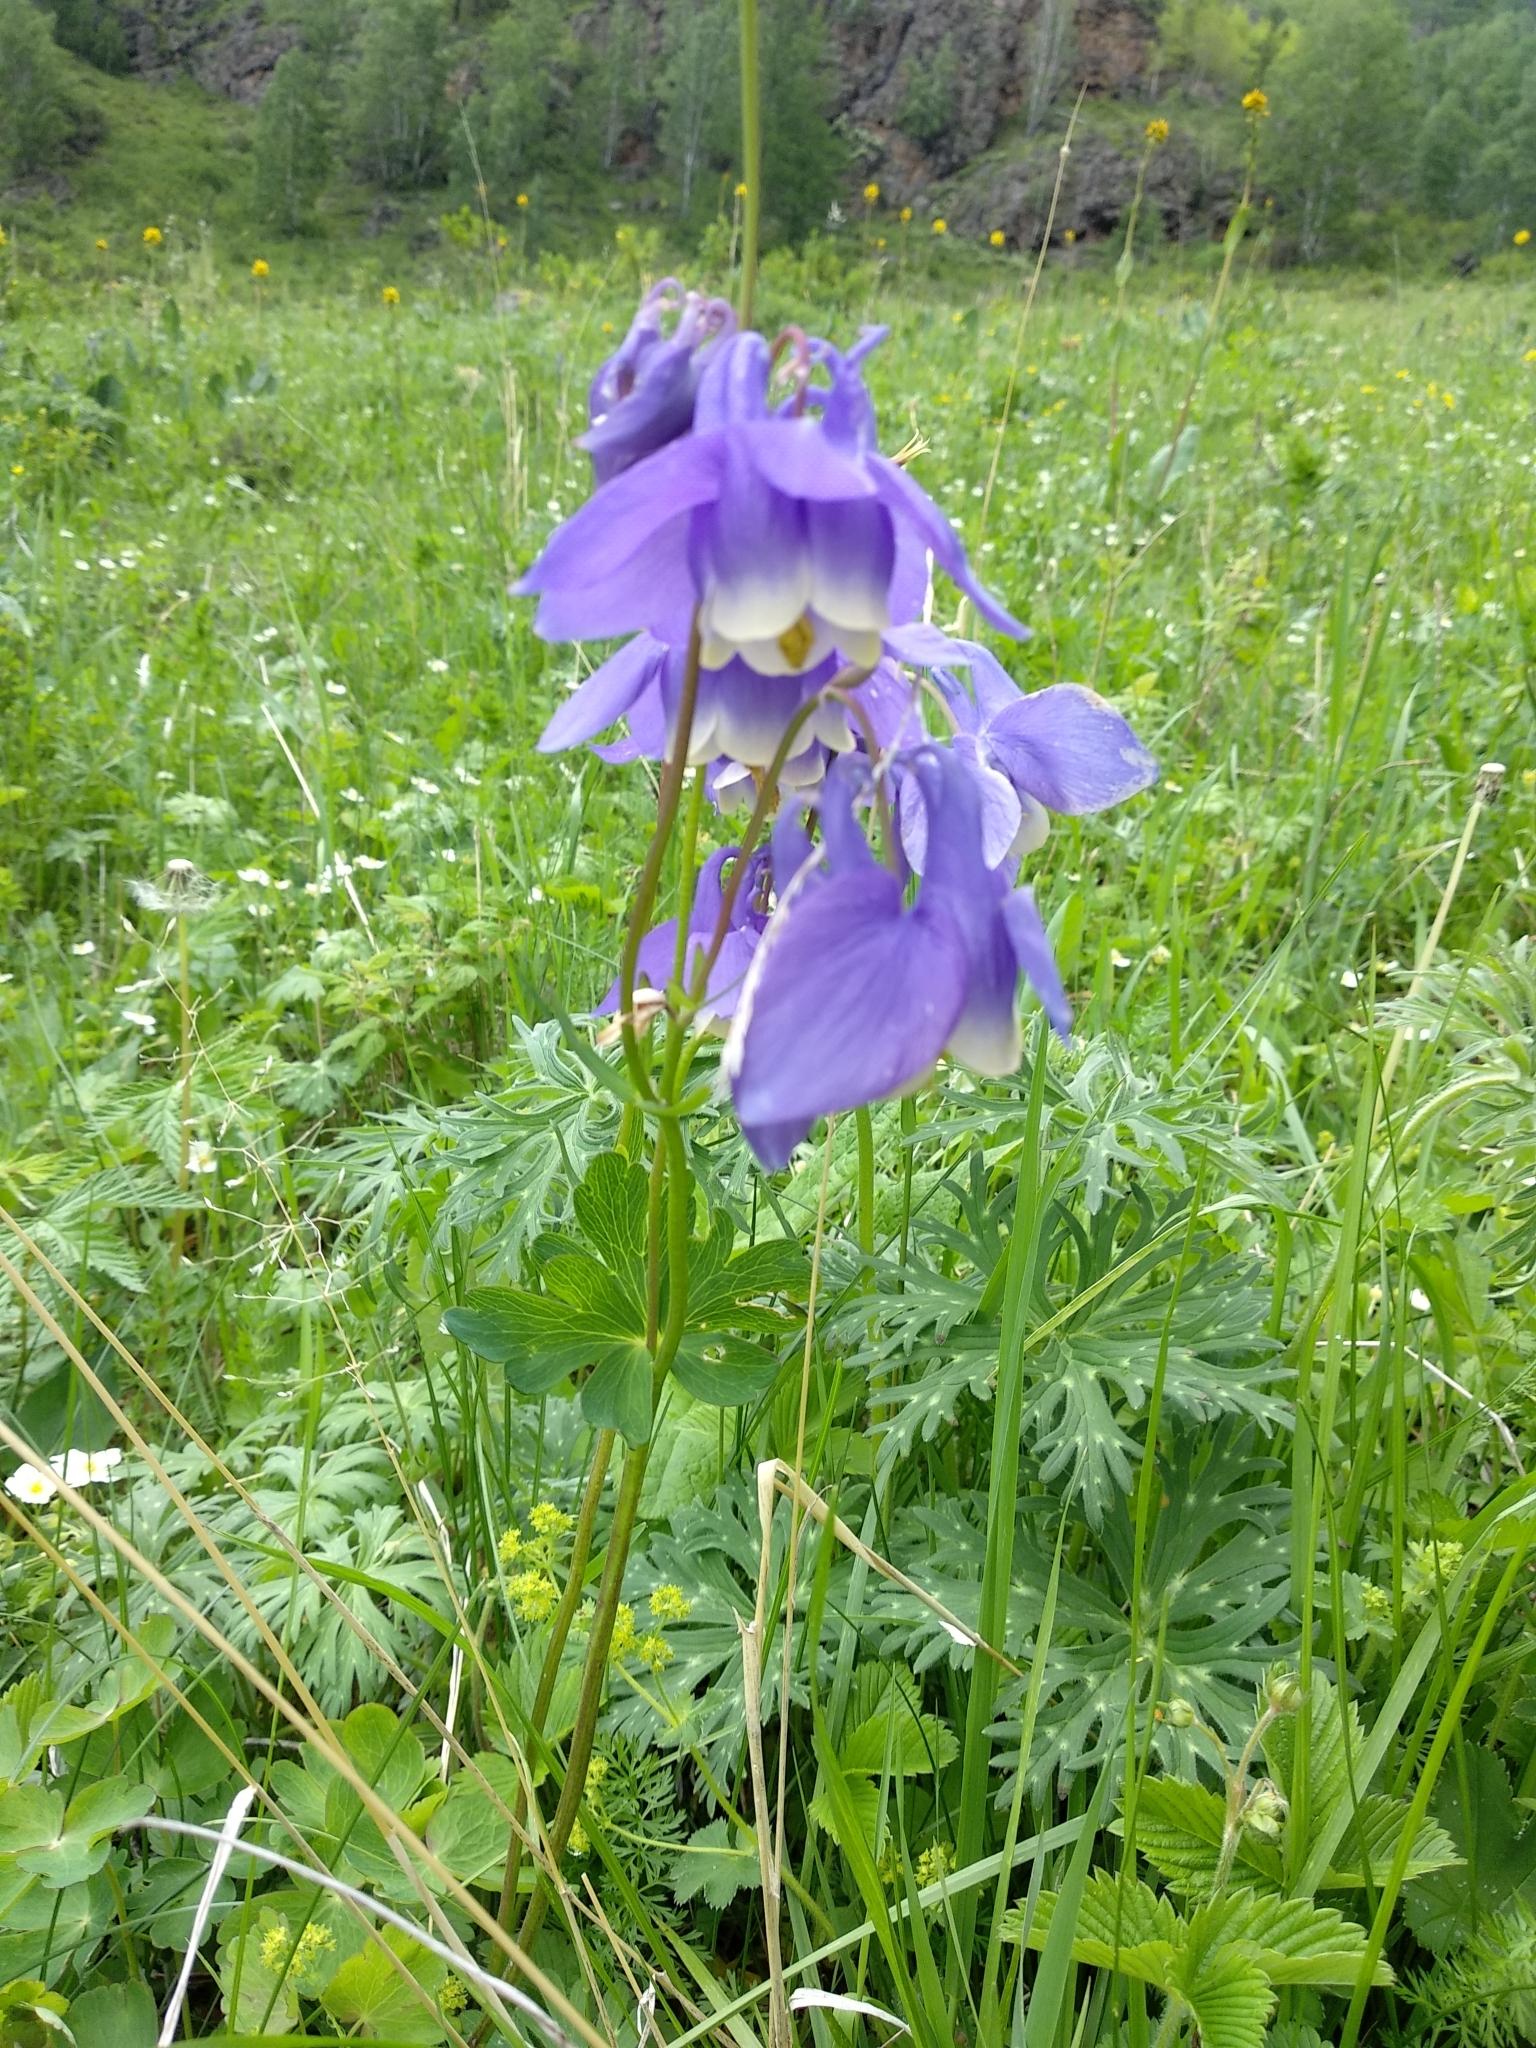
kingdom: Plantae
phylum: Tracheophyta
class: Magnoliopsida
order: Ranunculales
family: Ranunculaceae
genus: Aquilegia
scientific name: Aquilegia sibirica
